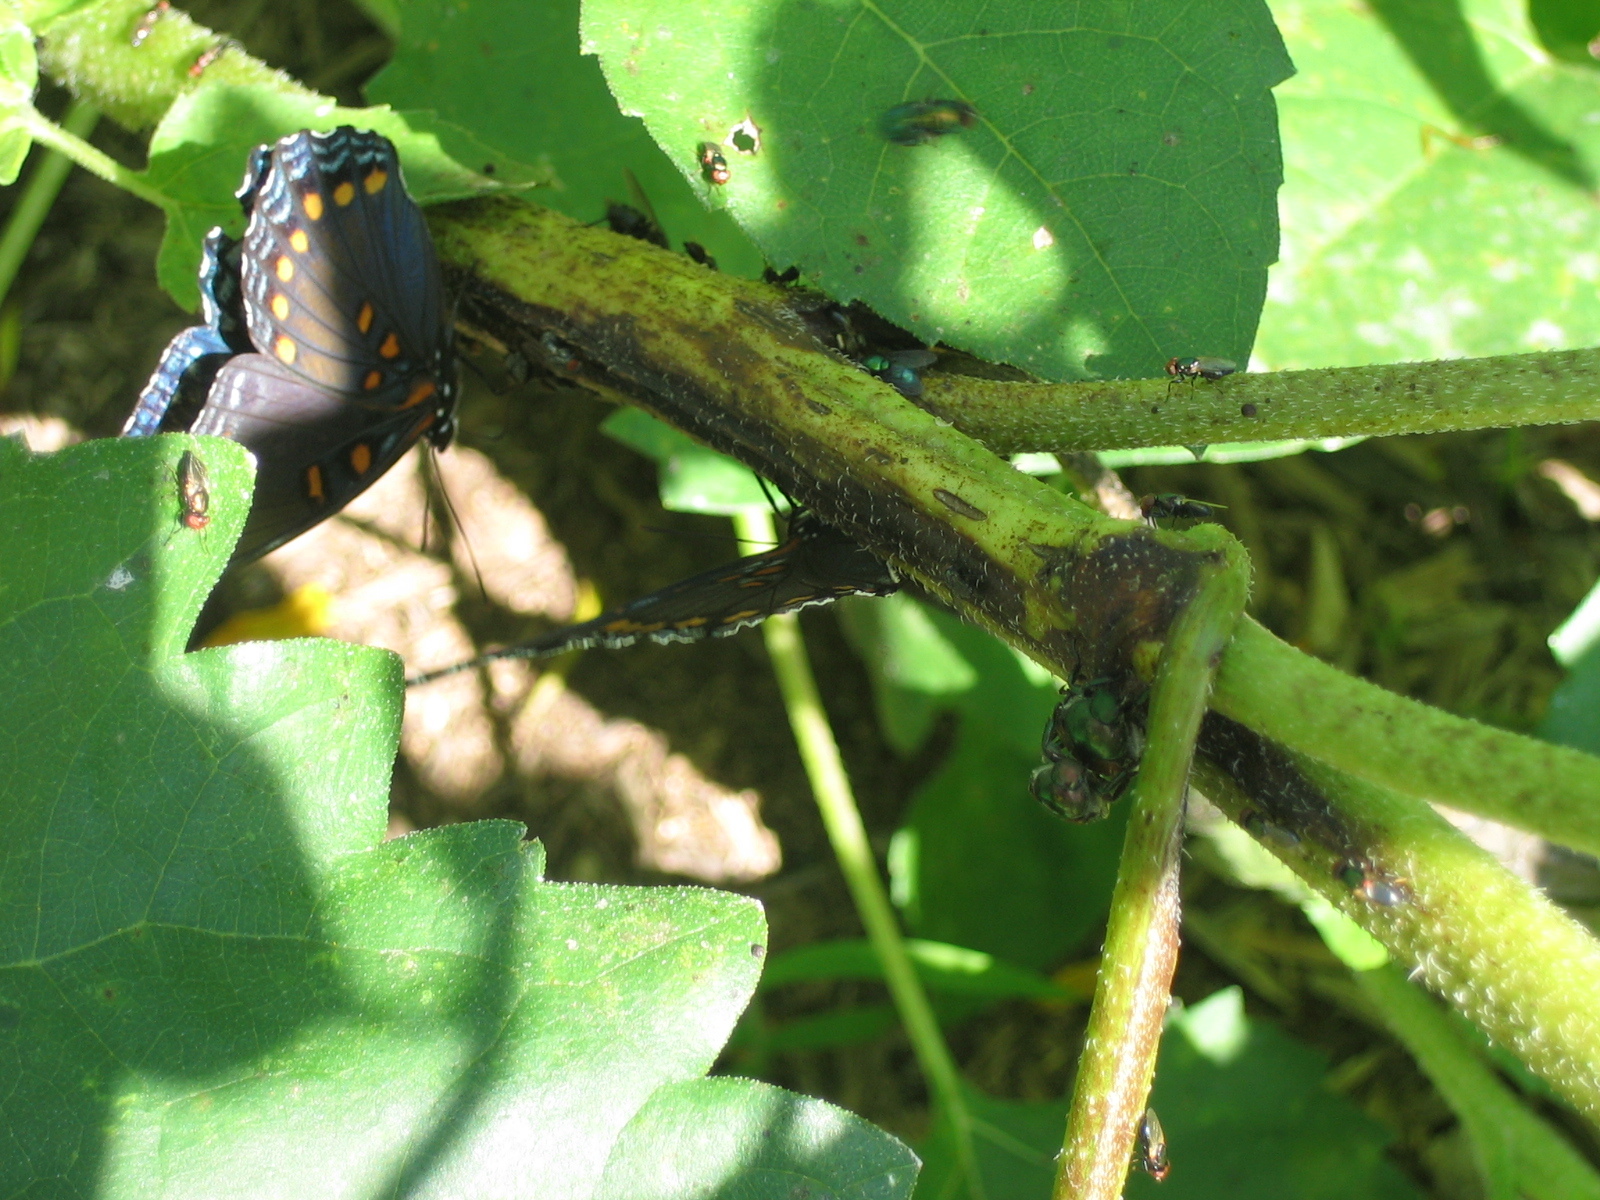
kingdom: Animalia
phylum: Arthropoda
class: Insecta
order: Lepidoptera
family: Nymphalidae
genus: Limenitis
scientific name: Limenitis astyanax
